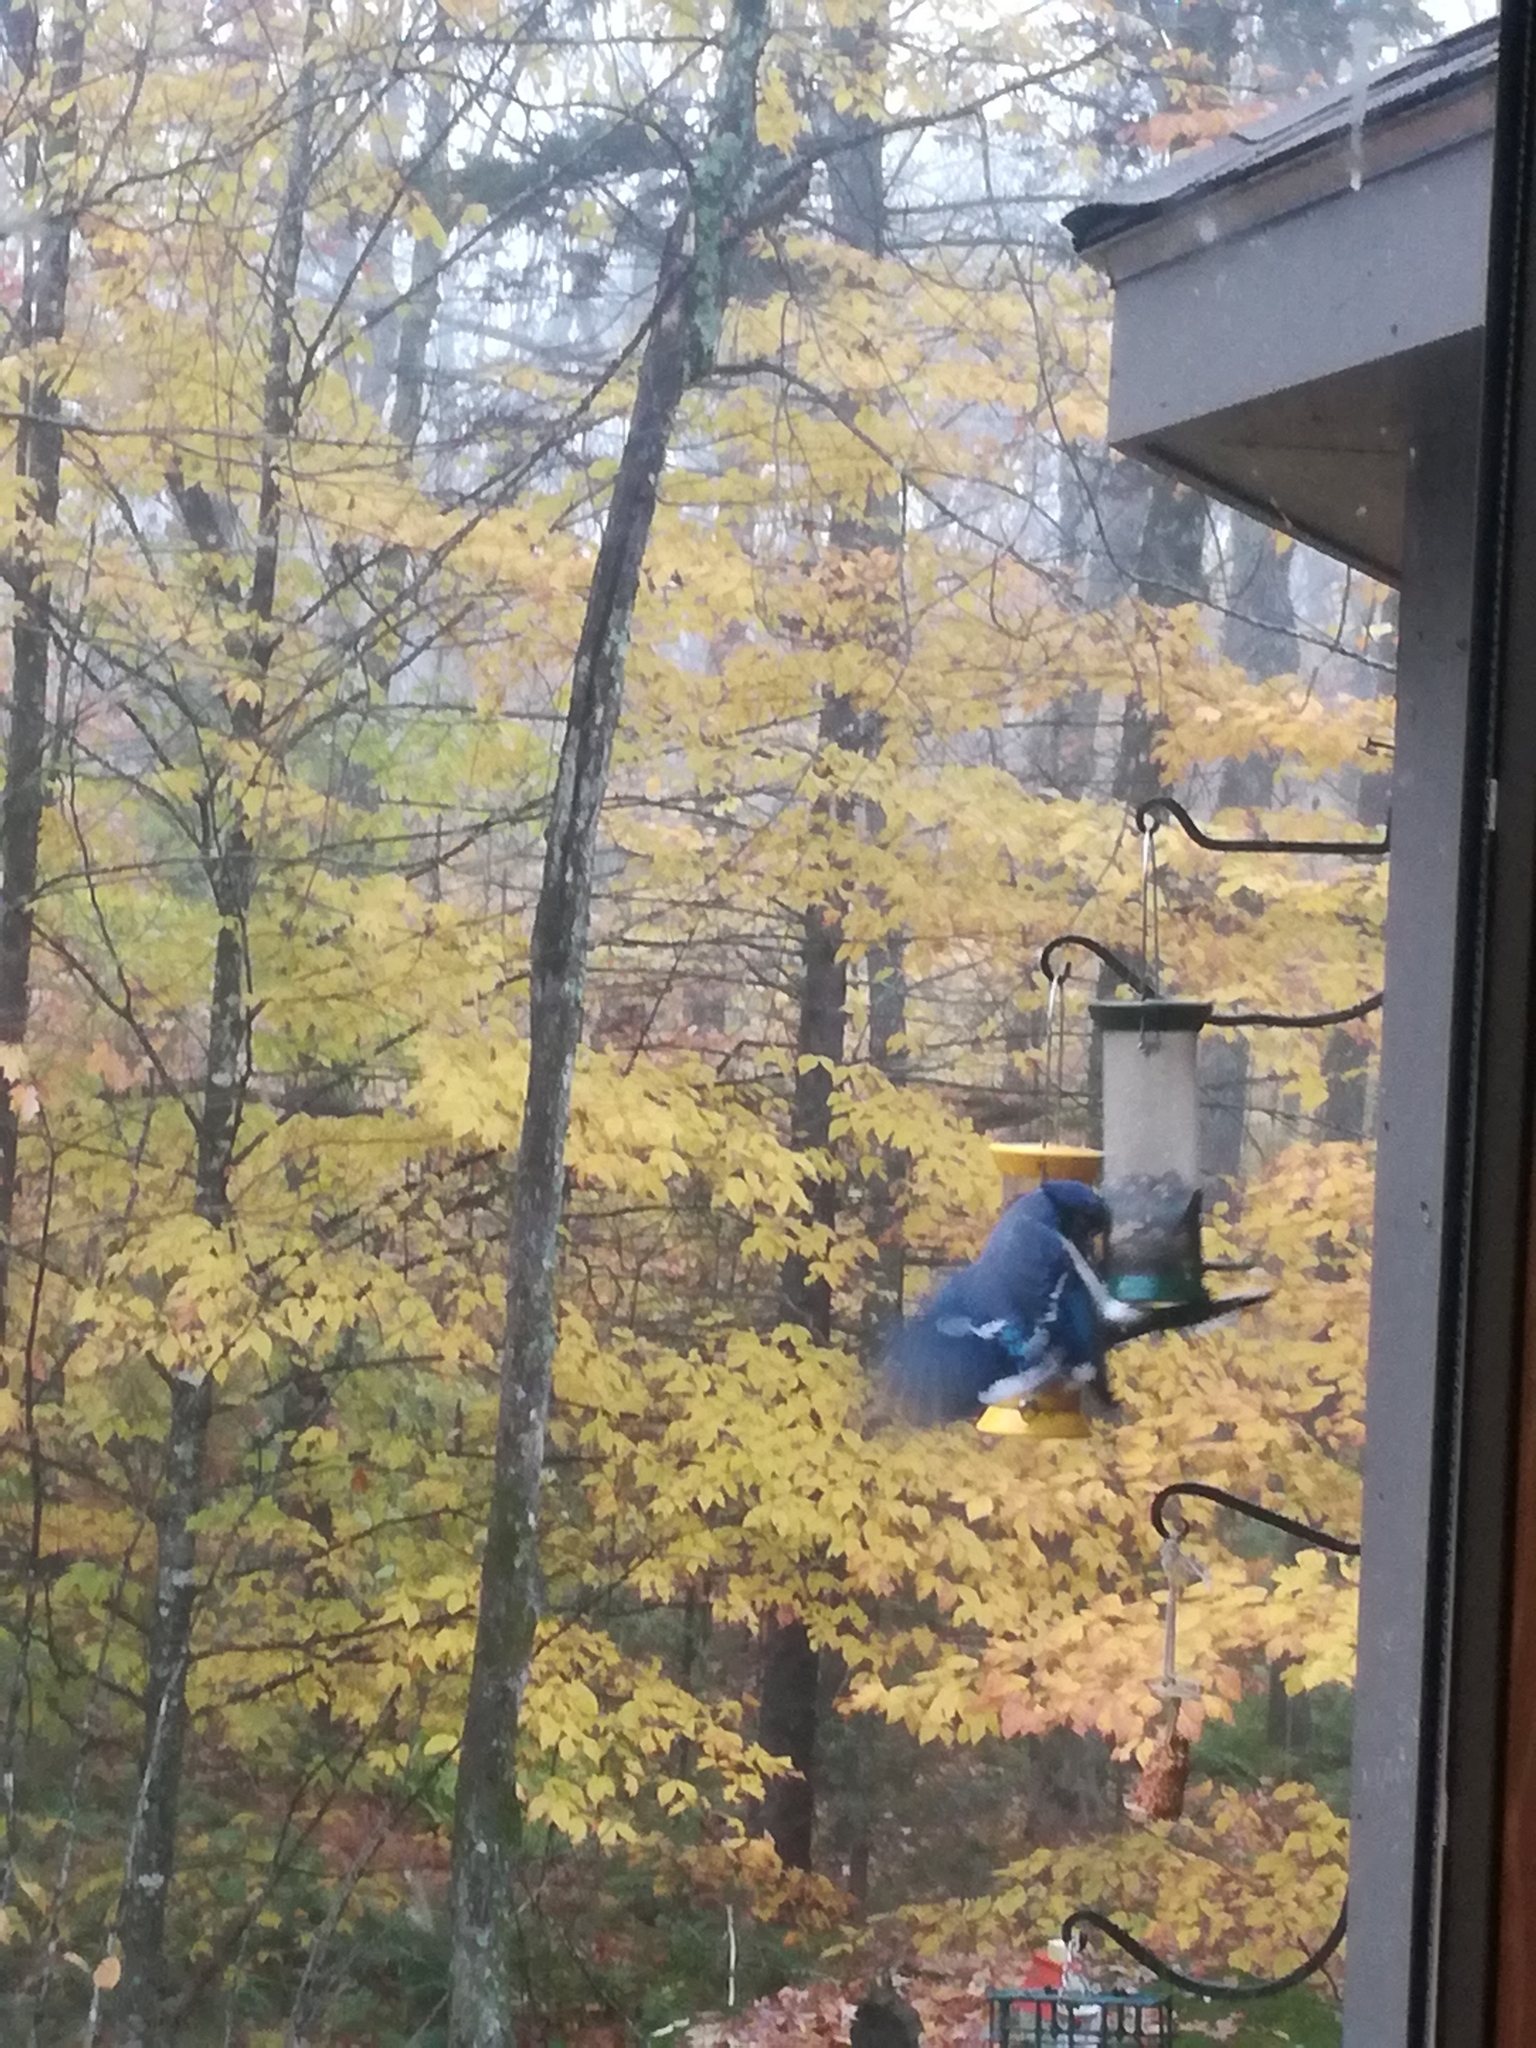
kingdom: Animalia
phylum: Chordata
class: Aves
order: Passeriformes
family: Corvidae
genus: Cyanocitta
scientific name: Cyanocitta cristata
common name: Blue jay
